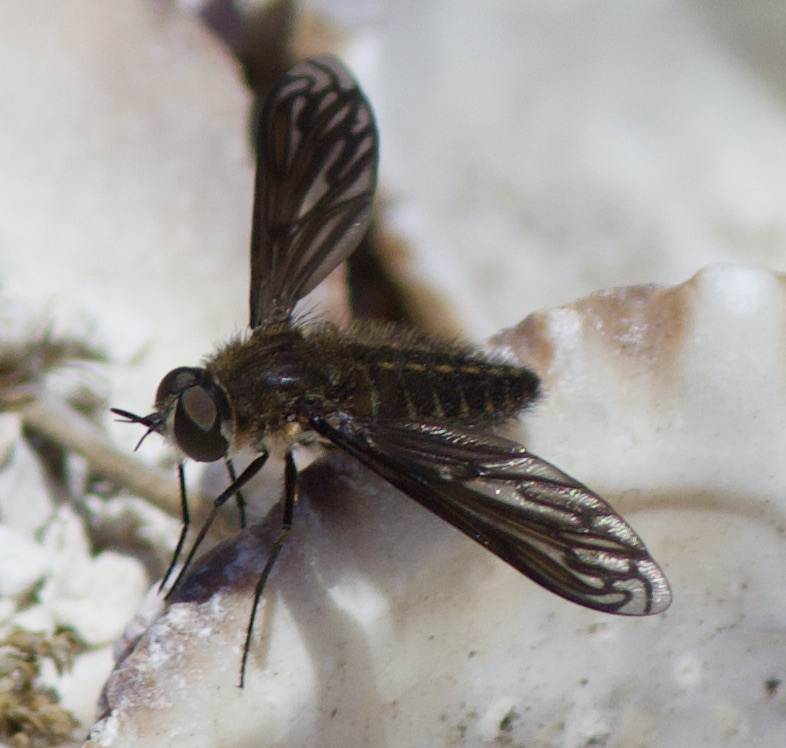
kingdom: Animalia
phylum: Arthropoda
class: Insecta
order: Diptera
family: Bombyliidae
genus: Macrocondyla
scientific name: Macrocondyla lugubris
